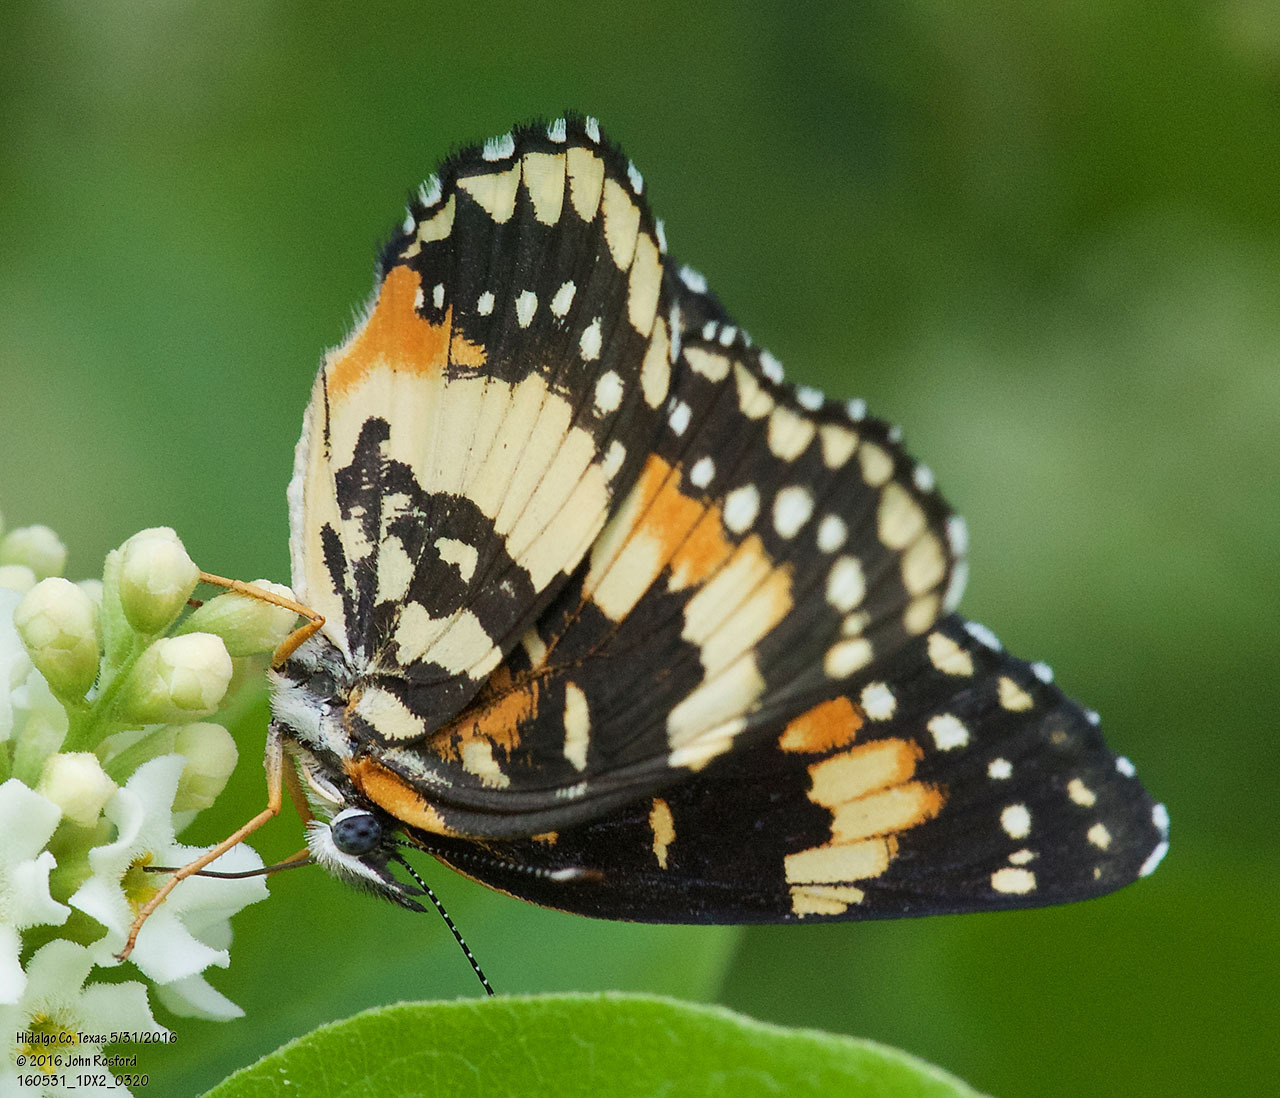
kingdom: Animalia
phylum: Arthropoda
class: Insecta
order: Lepidoptera
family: Nymphalidae
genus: Chlosyne
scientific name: Chlosyne lacinia
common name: Bordered patch
